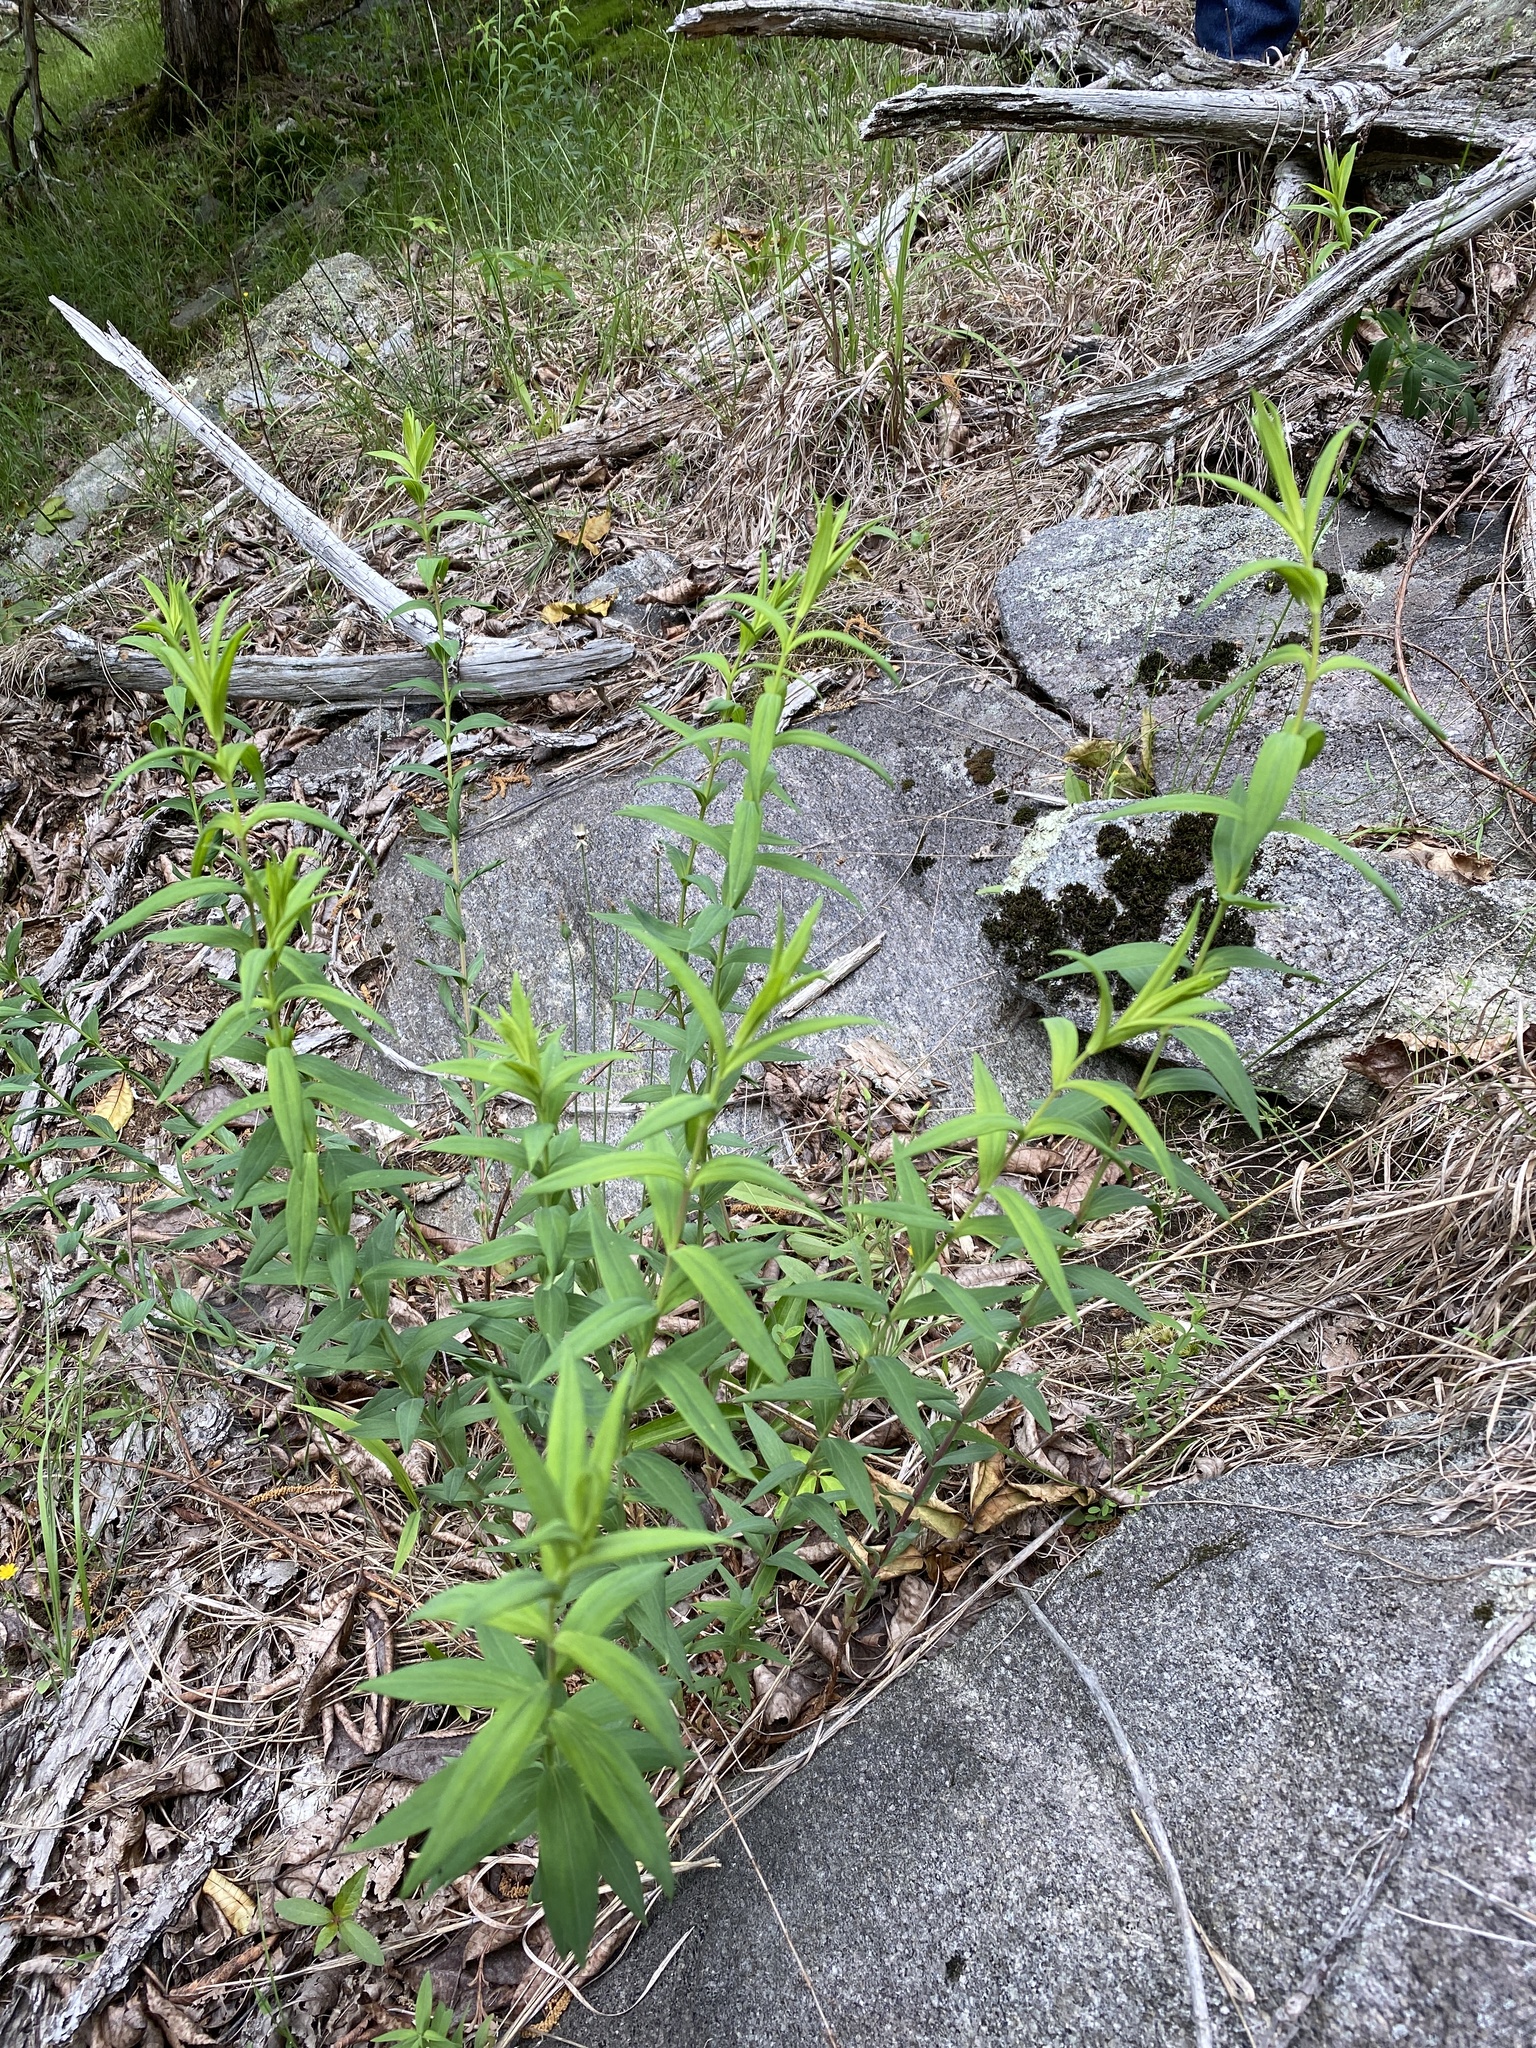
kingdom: Plantae
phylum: Tracheophyta
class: Magnoliopsida
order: Malpighiales
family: Hypericaceae
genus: Hypericum
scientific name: Hypericum radfordiorum
